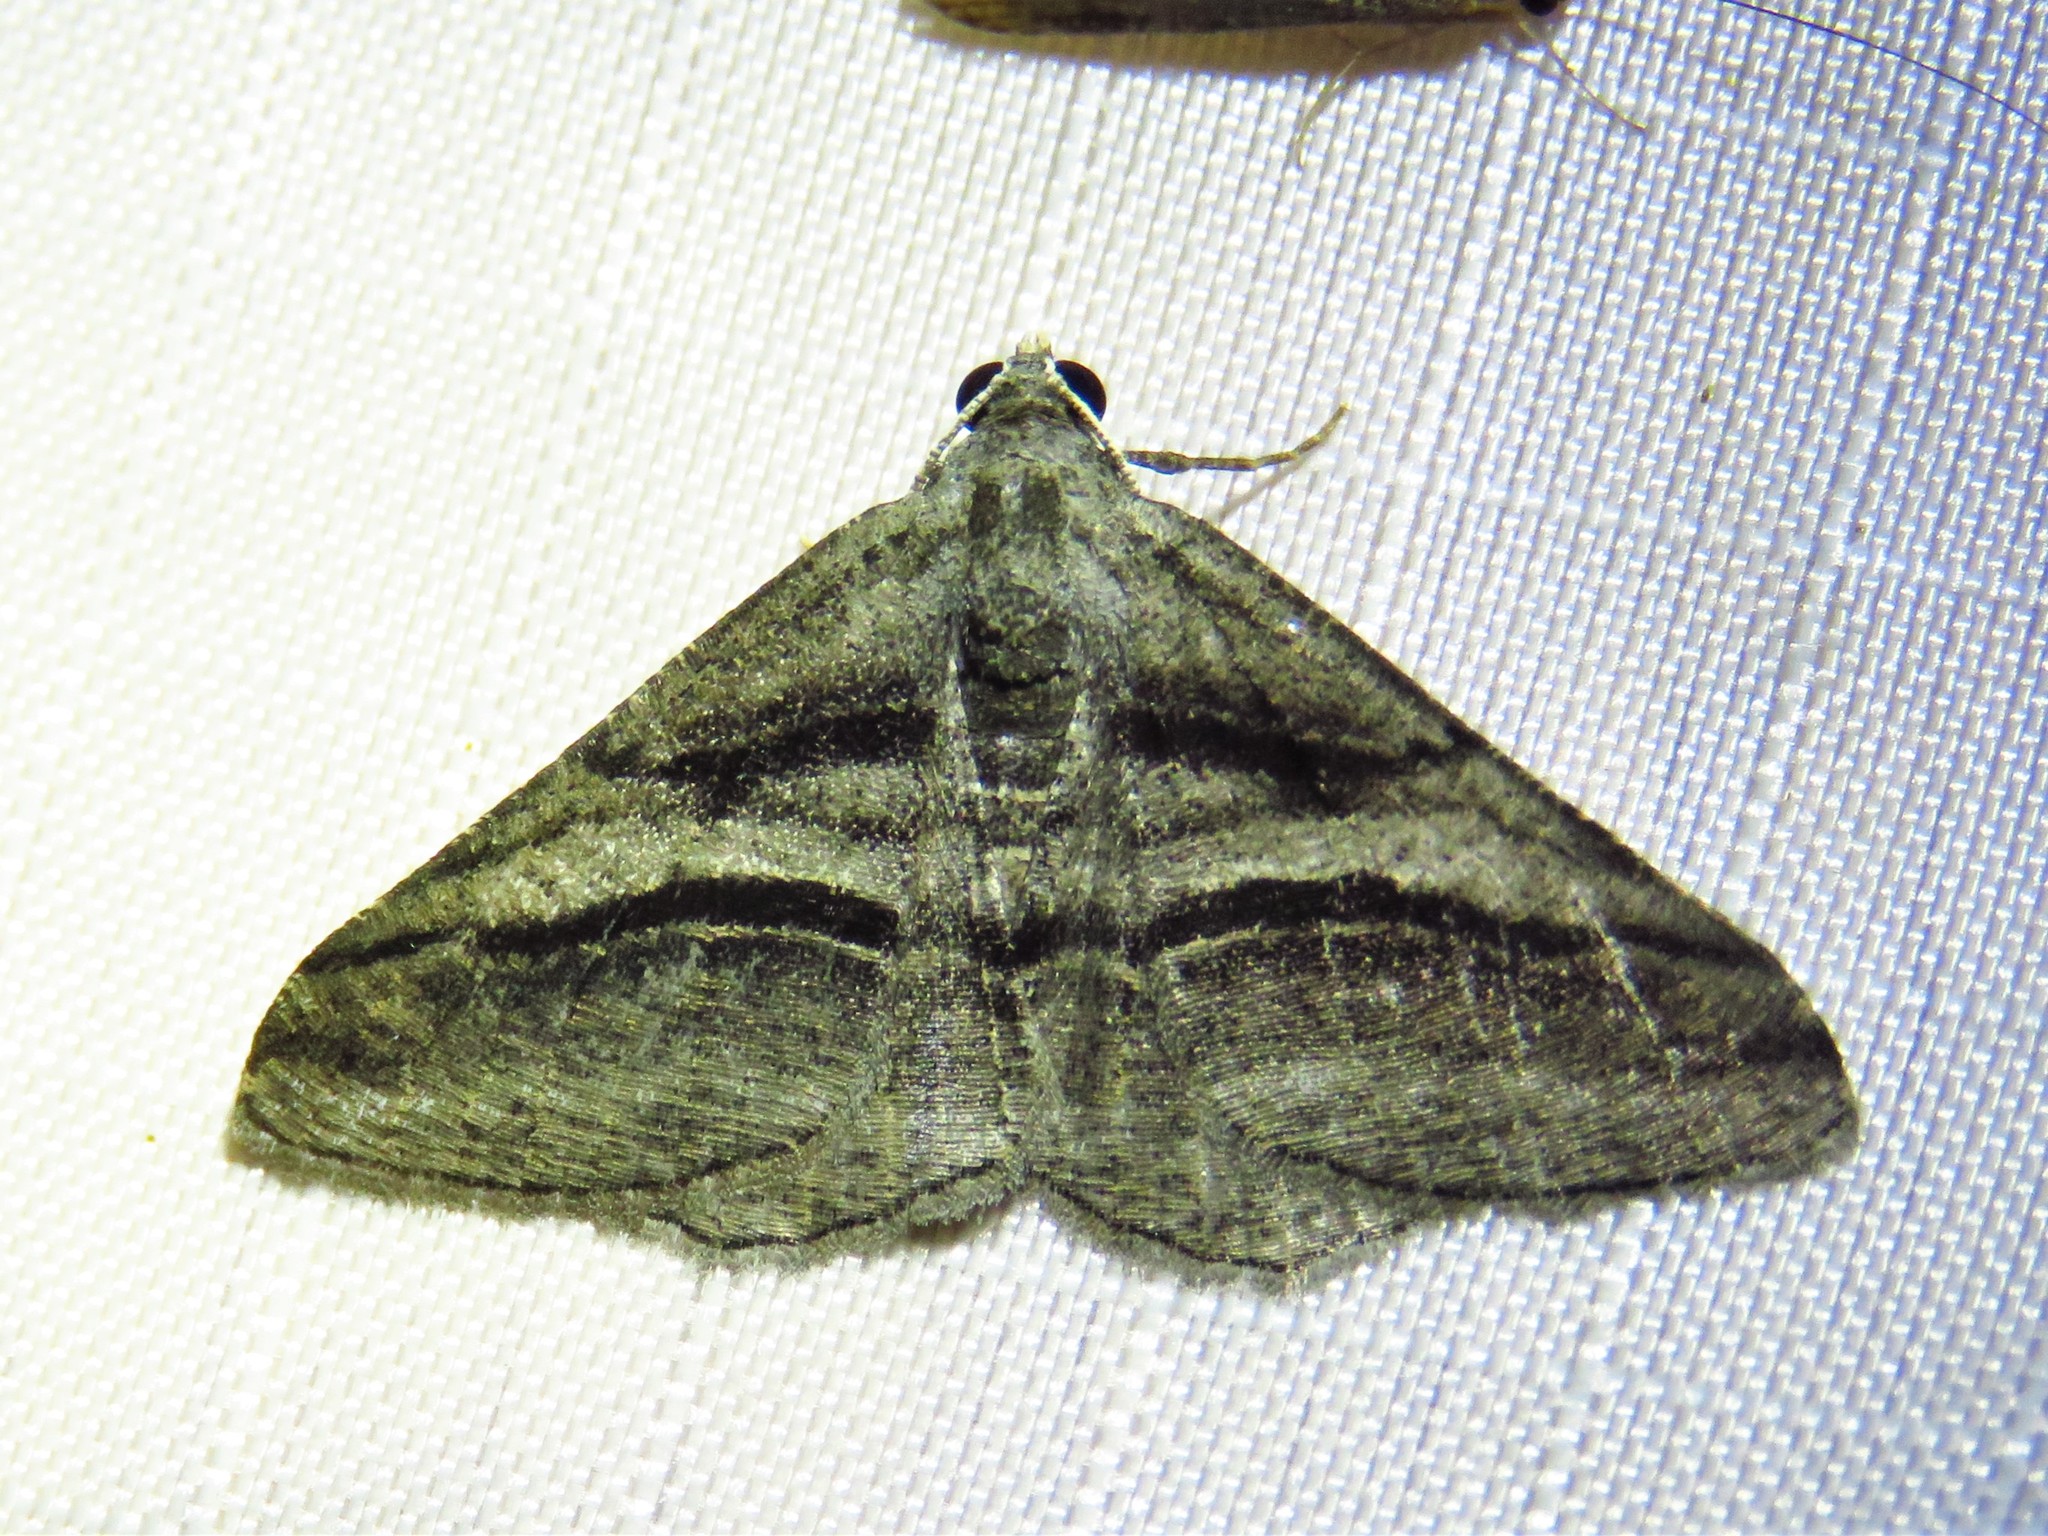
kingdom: Animalia
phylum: Arthropoda
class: Insecta
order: Lepidoptera
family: Geometridae
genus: Digrammia
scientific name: Digrammia atrofasciata
